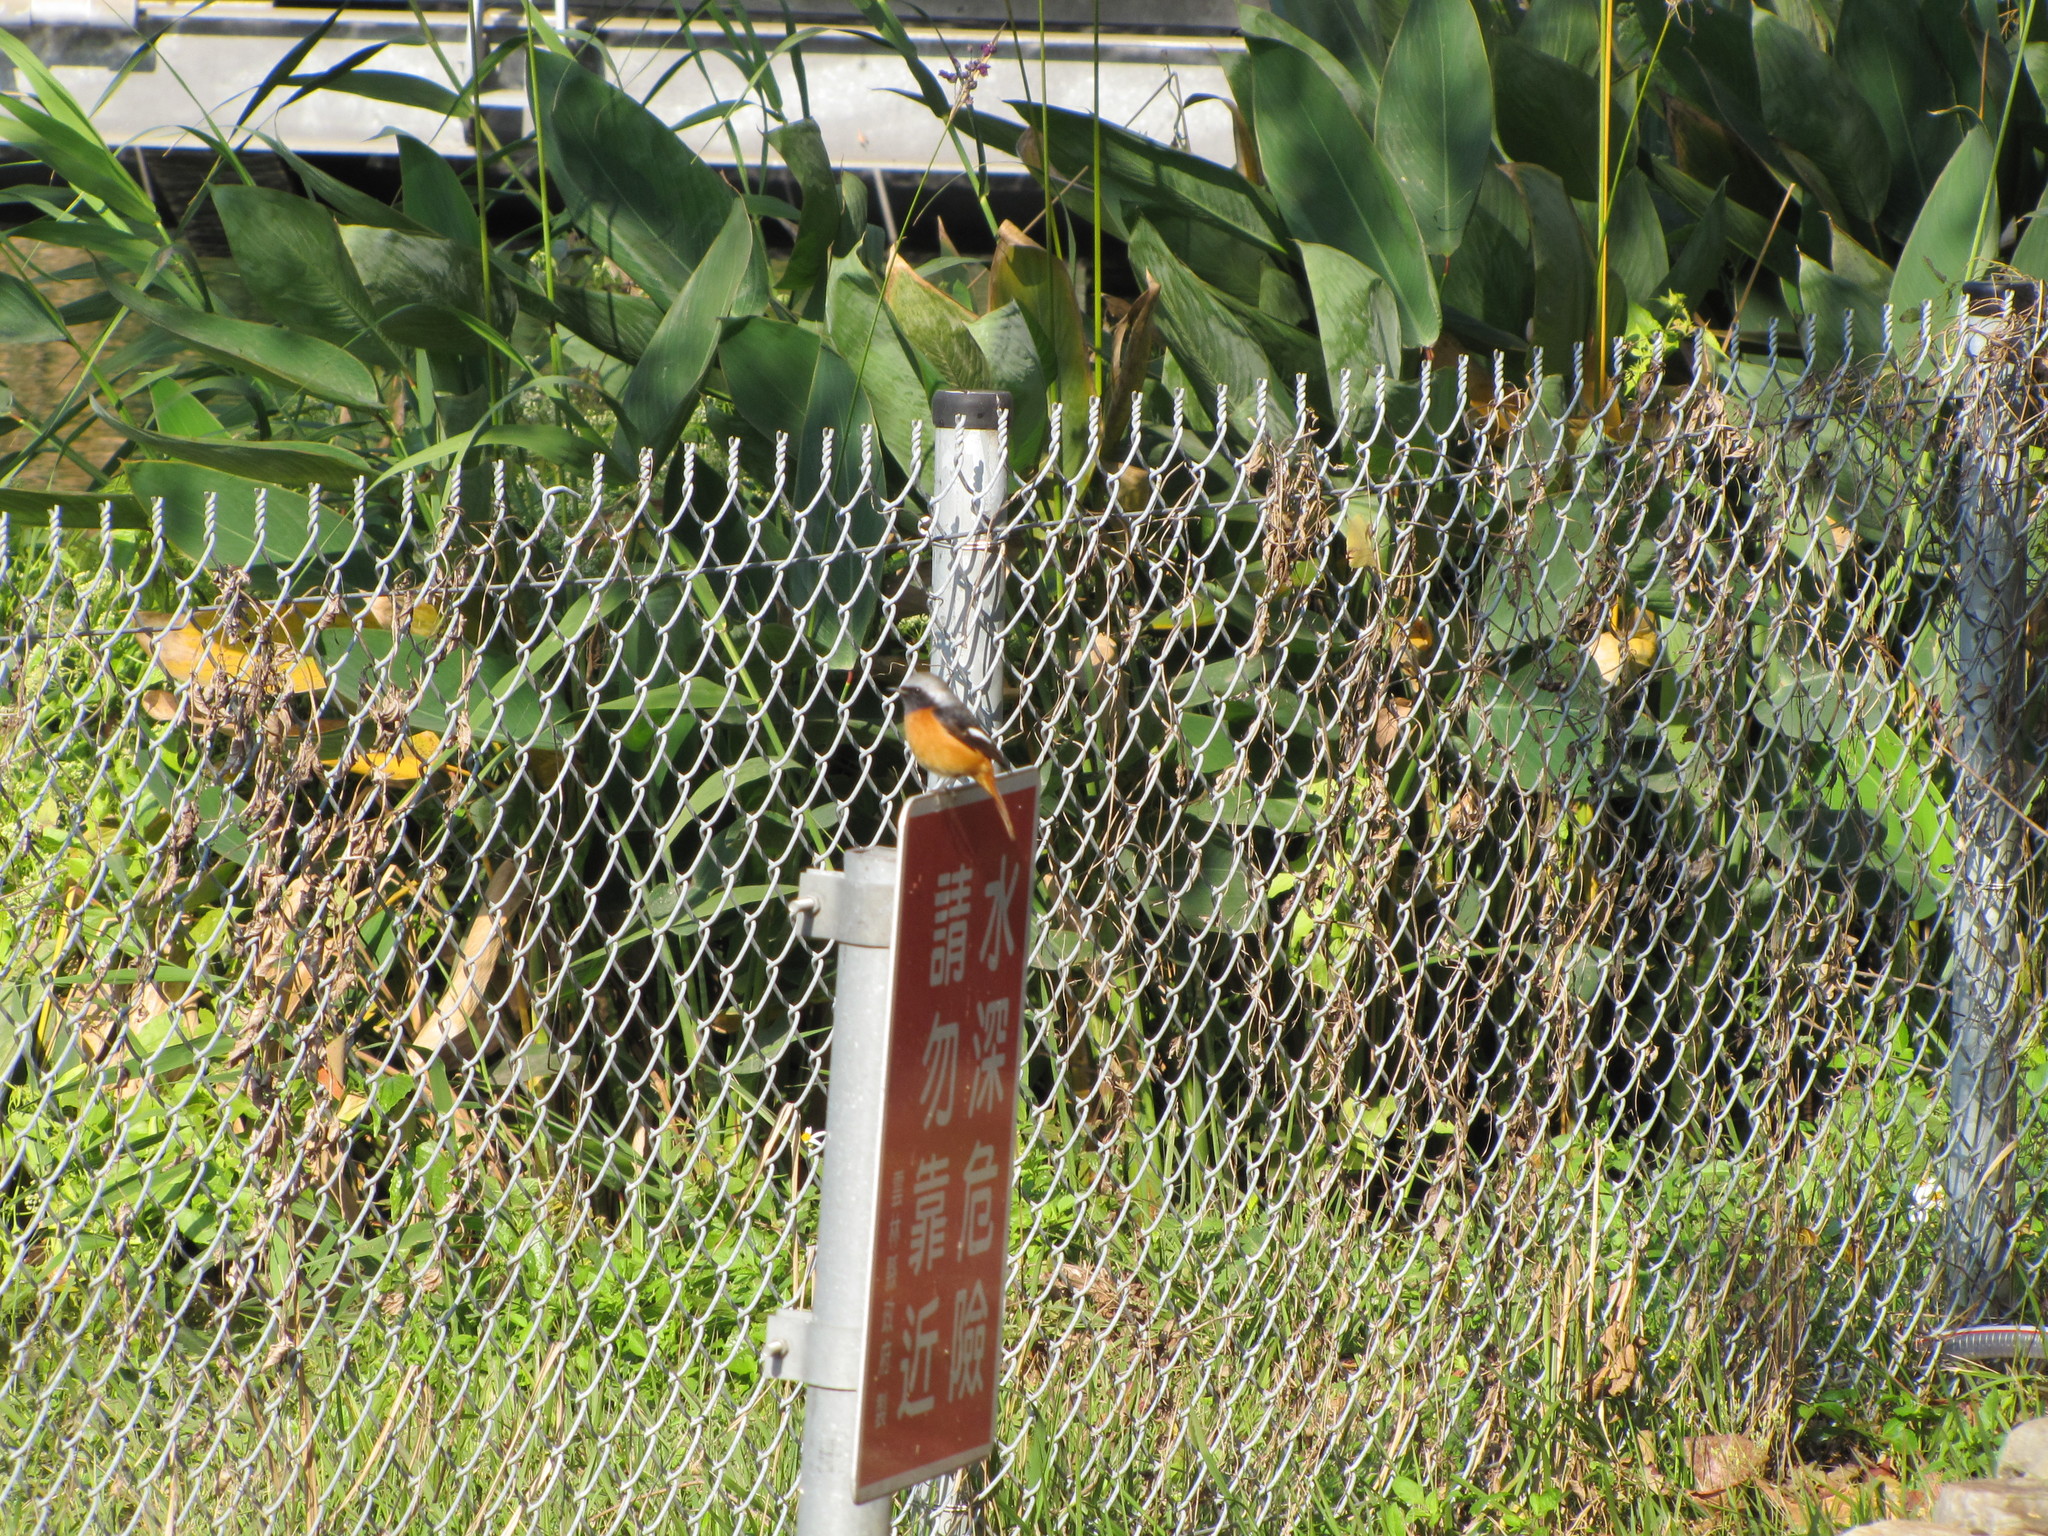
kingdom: Animalia
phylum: Chordata
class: Aves
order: Passeriformes
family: Muscicapidae
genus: Phoenicurus
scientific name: Phoenicurus auroreus
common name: Daurian redstart
